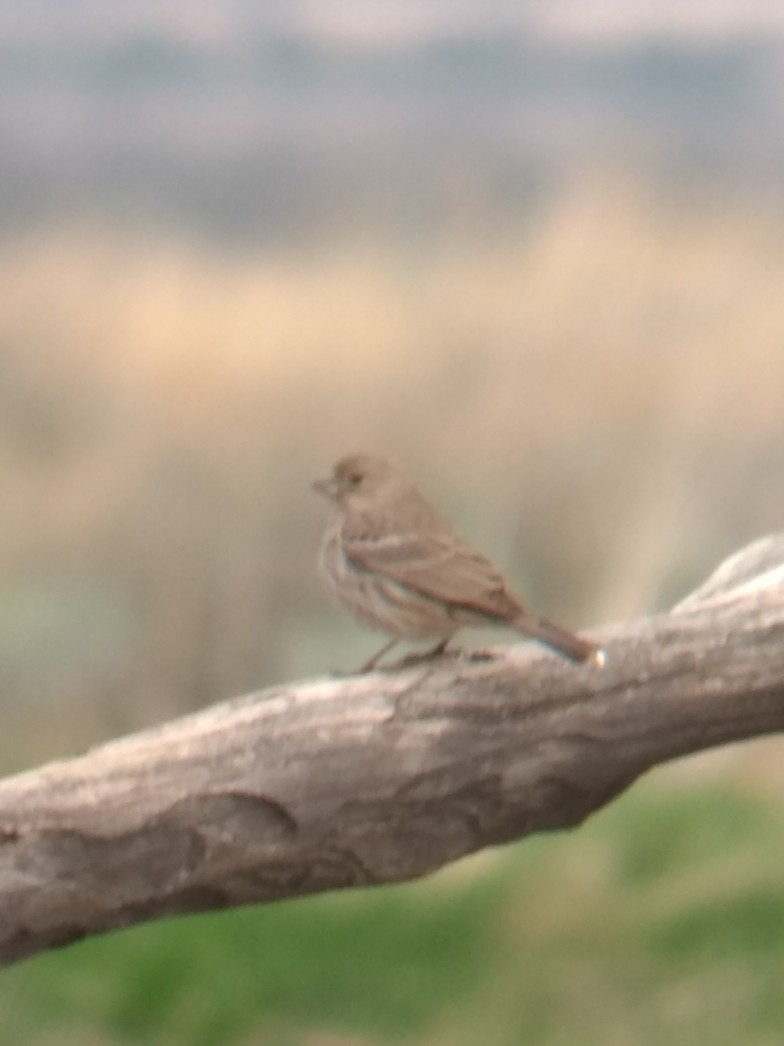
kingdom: Animalia
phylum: Chordata
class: Aves
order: Passeriformes
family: Fringillidae
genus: Haemorhous
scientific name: Haemorhous mexicanus
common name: House finch
